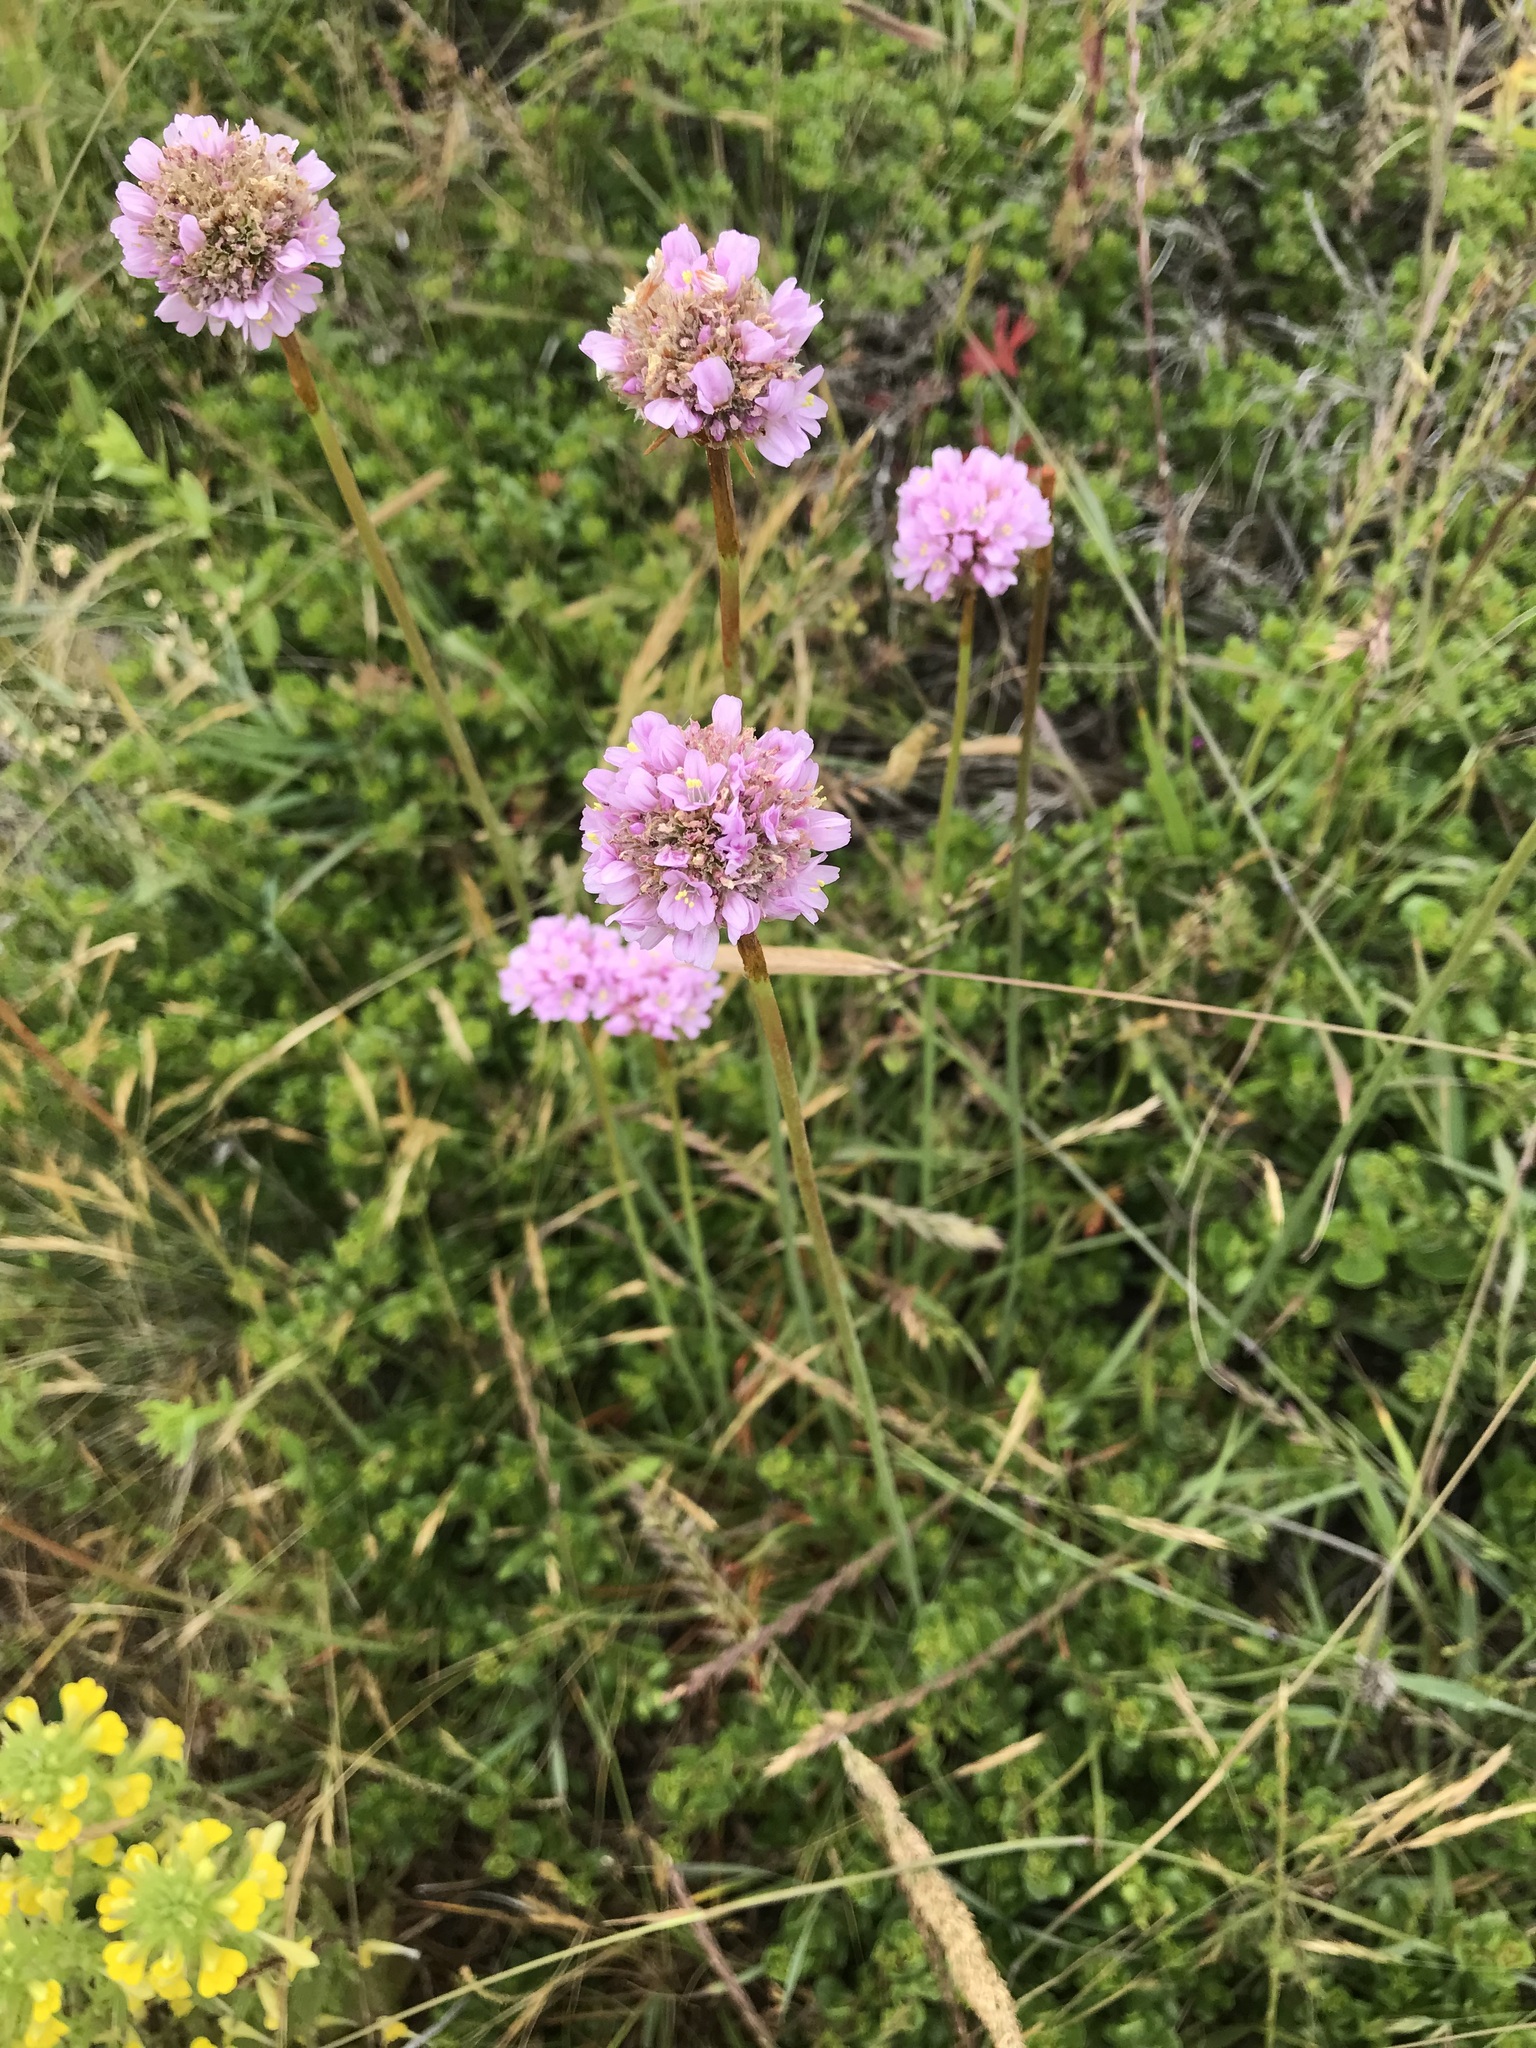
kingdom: Plantae
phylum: Tracheophyta
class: Magnoliopsida
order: Caryophyllales
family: Plumbaginaceae
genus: Armeria
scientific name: Armeria maritima
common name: Thrift
